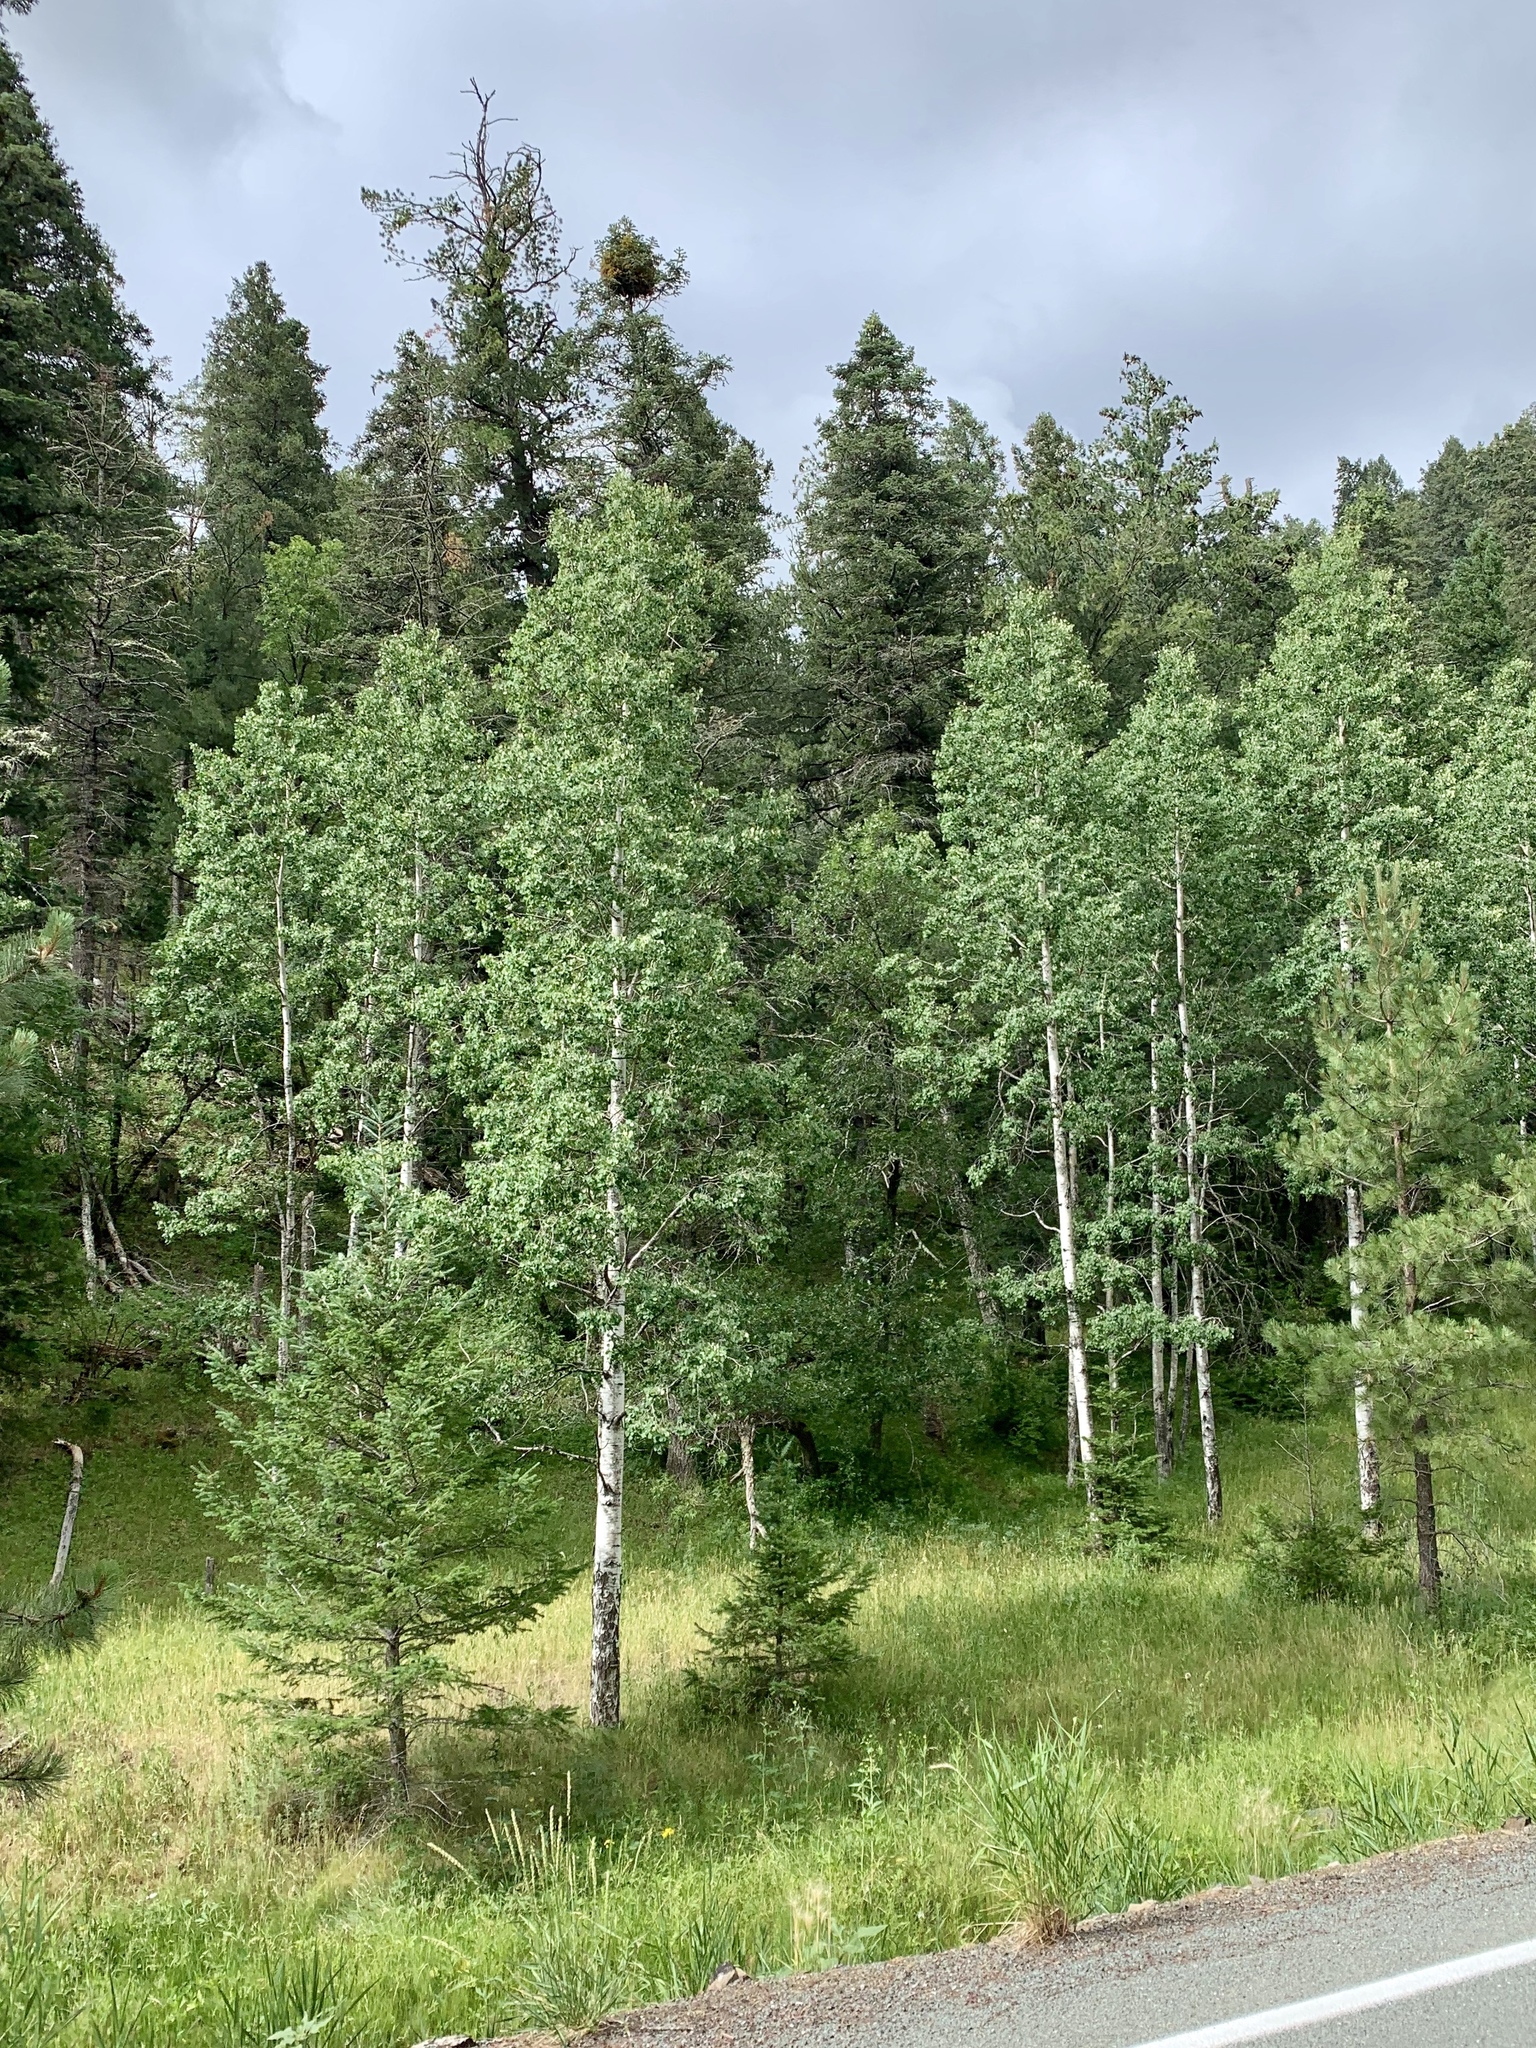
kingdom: Plantae
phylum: Tracheophyta
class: Magnoliopsida
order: Malpighiales
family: Salicaceae
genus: Populus
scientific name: Populus tremuloides
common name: Quaking aspen
